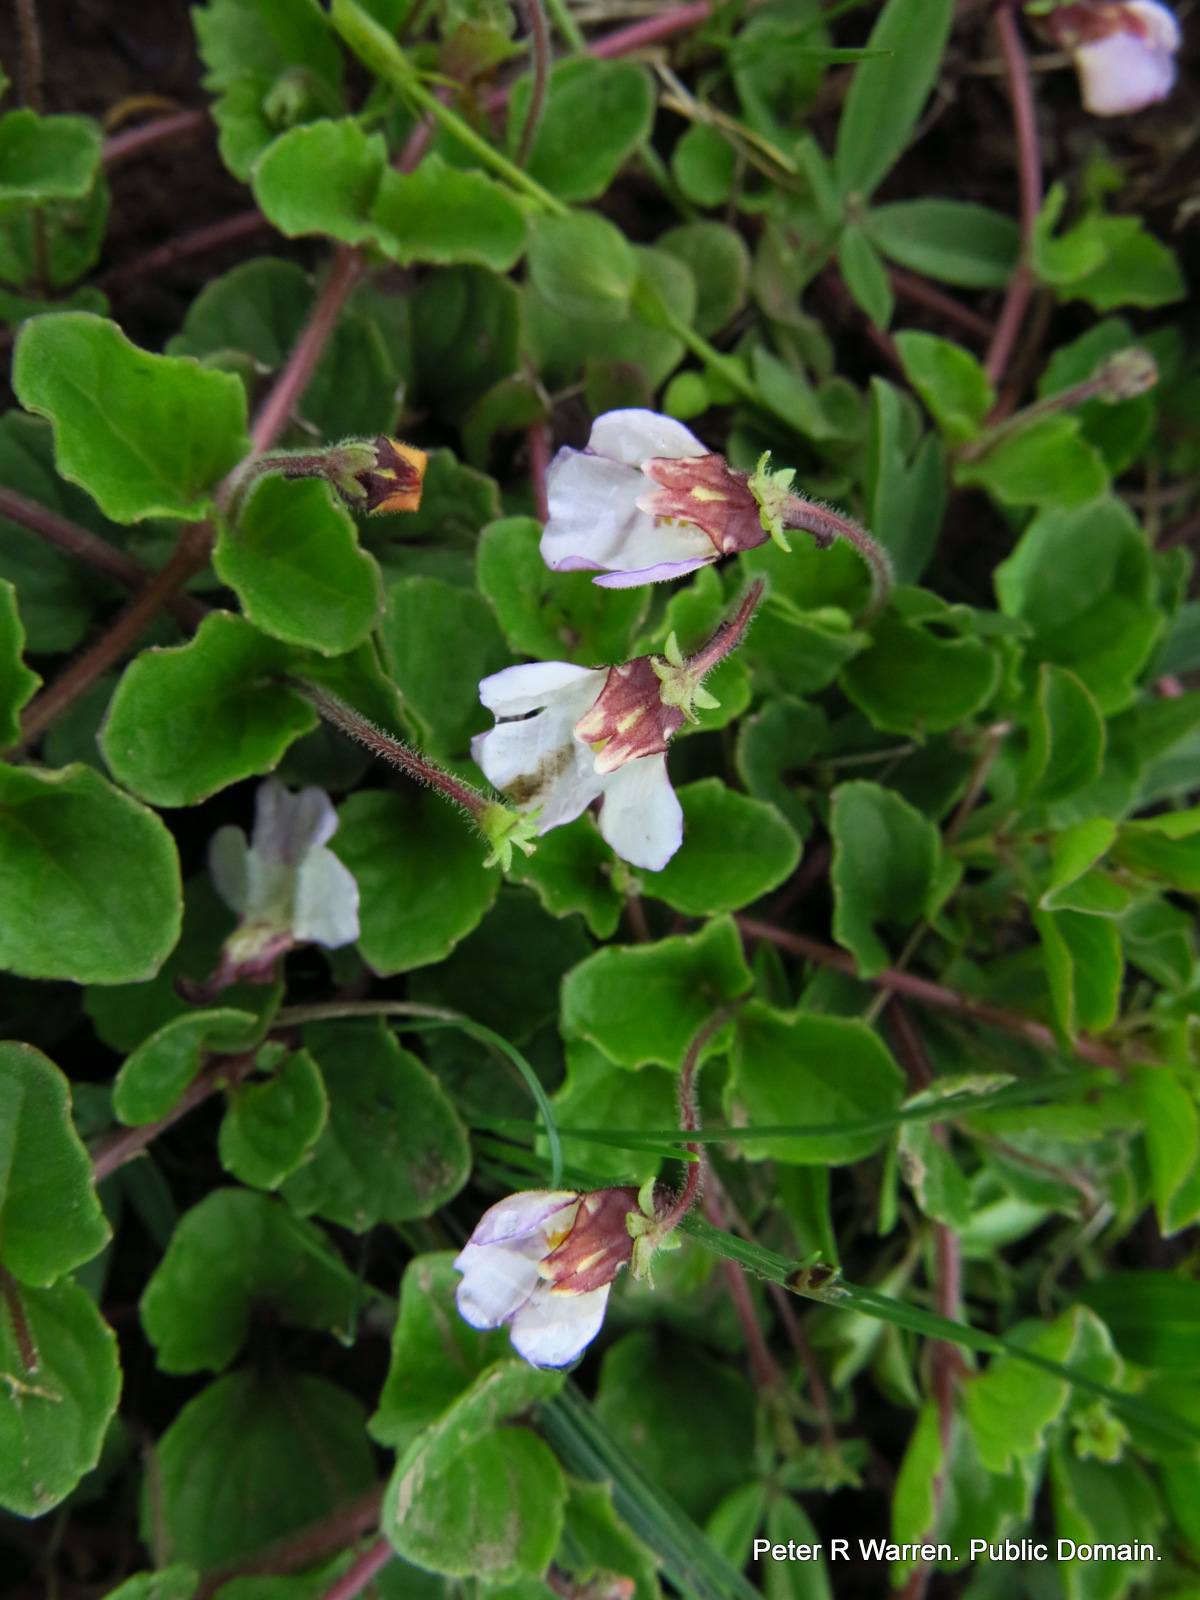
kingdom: Plantae
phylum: Tracheophyta
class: Magnoliopsida
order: Lamiales
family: Scrophulariaceae
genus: Diclis
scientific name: Diclis reptans
